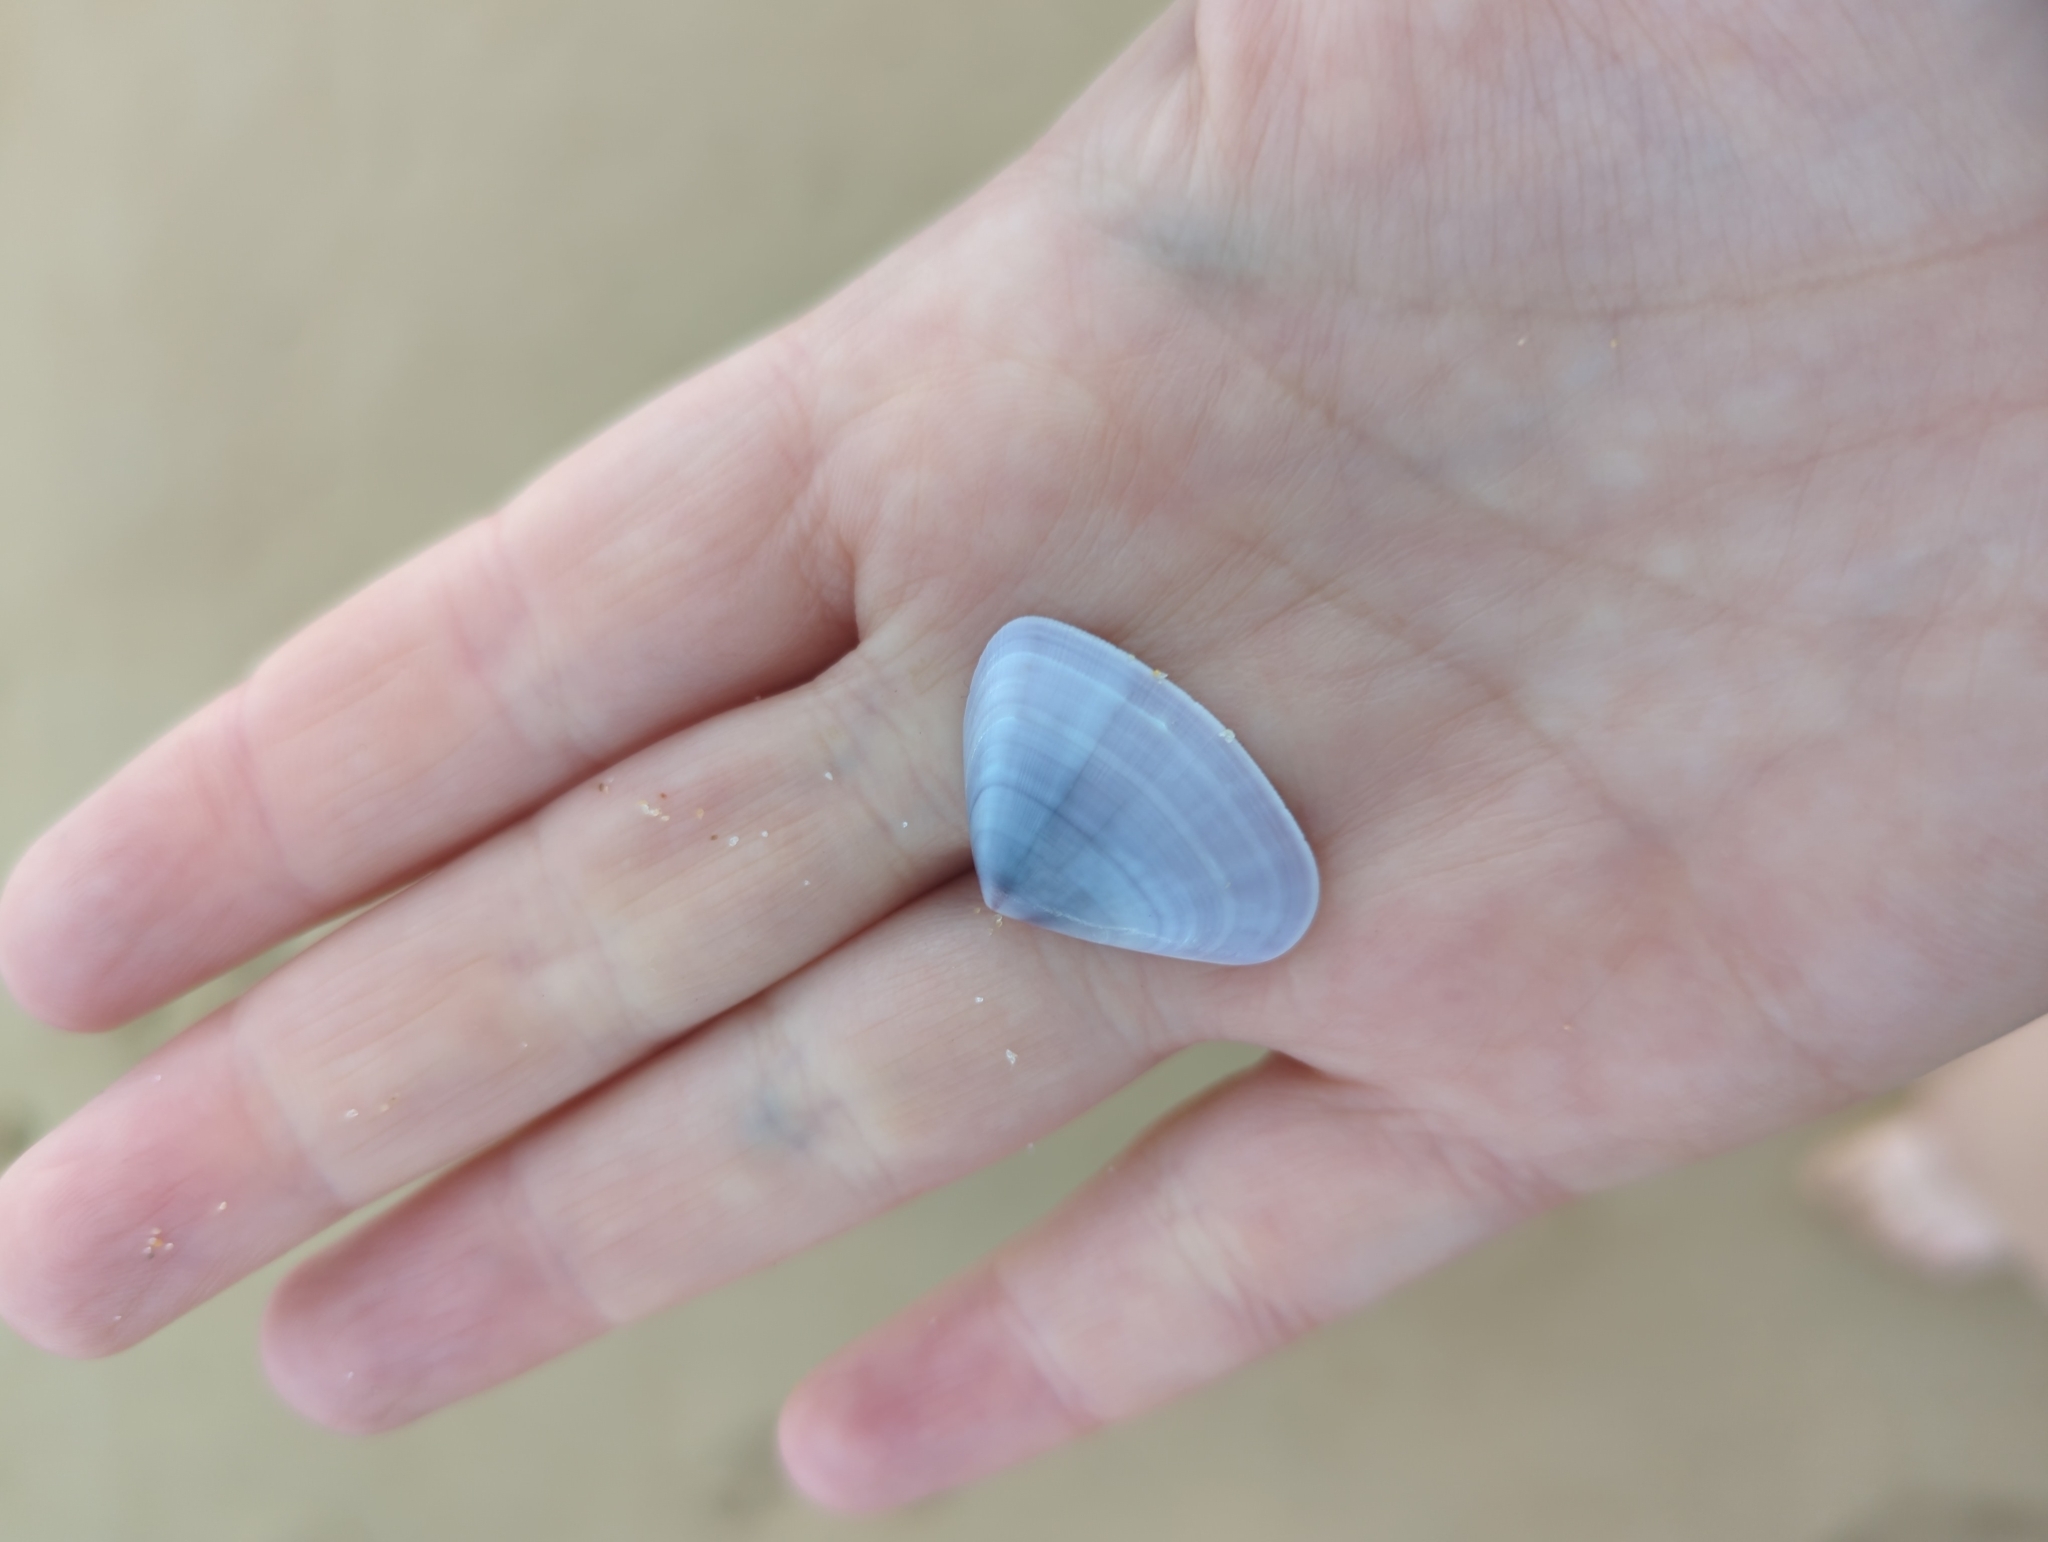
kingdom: Animalia
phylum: Mollusca
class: Bivalvia
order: Cardiida
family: Donacidae
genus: Latona
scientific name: Latona deltoides
